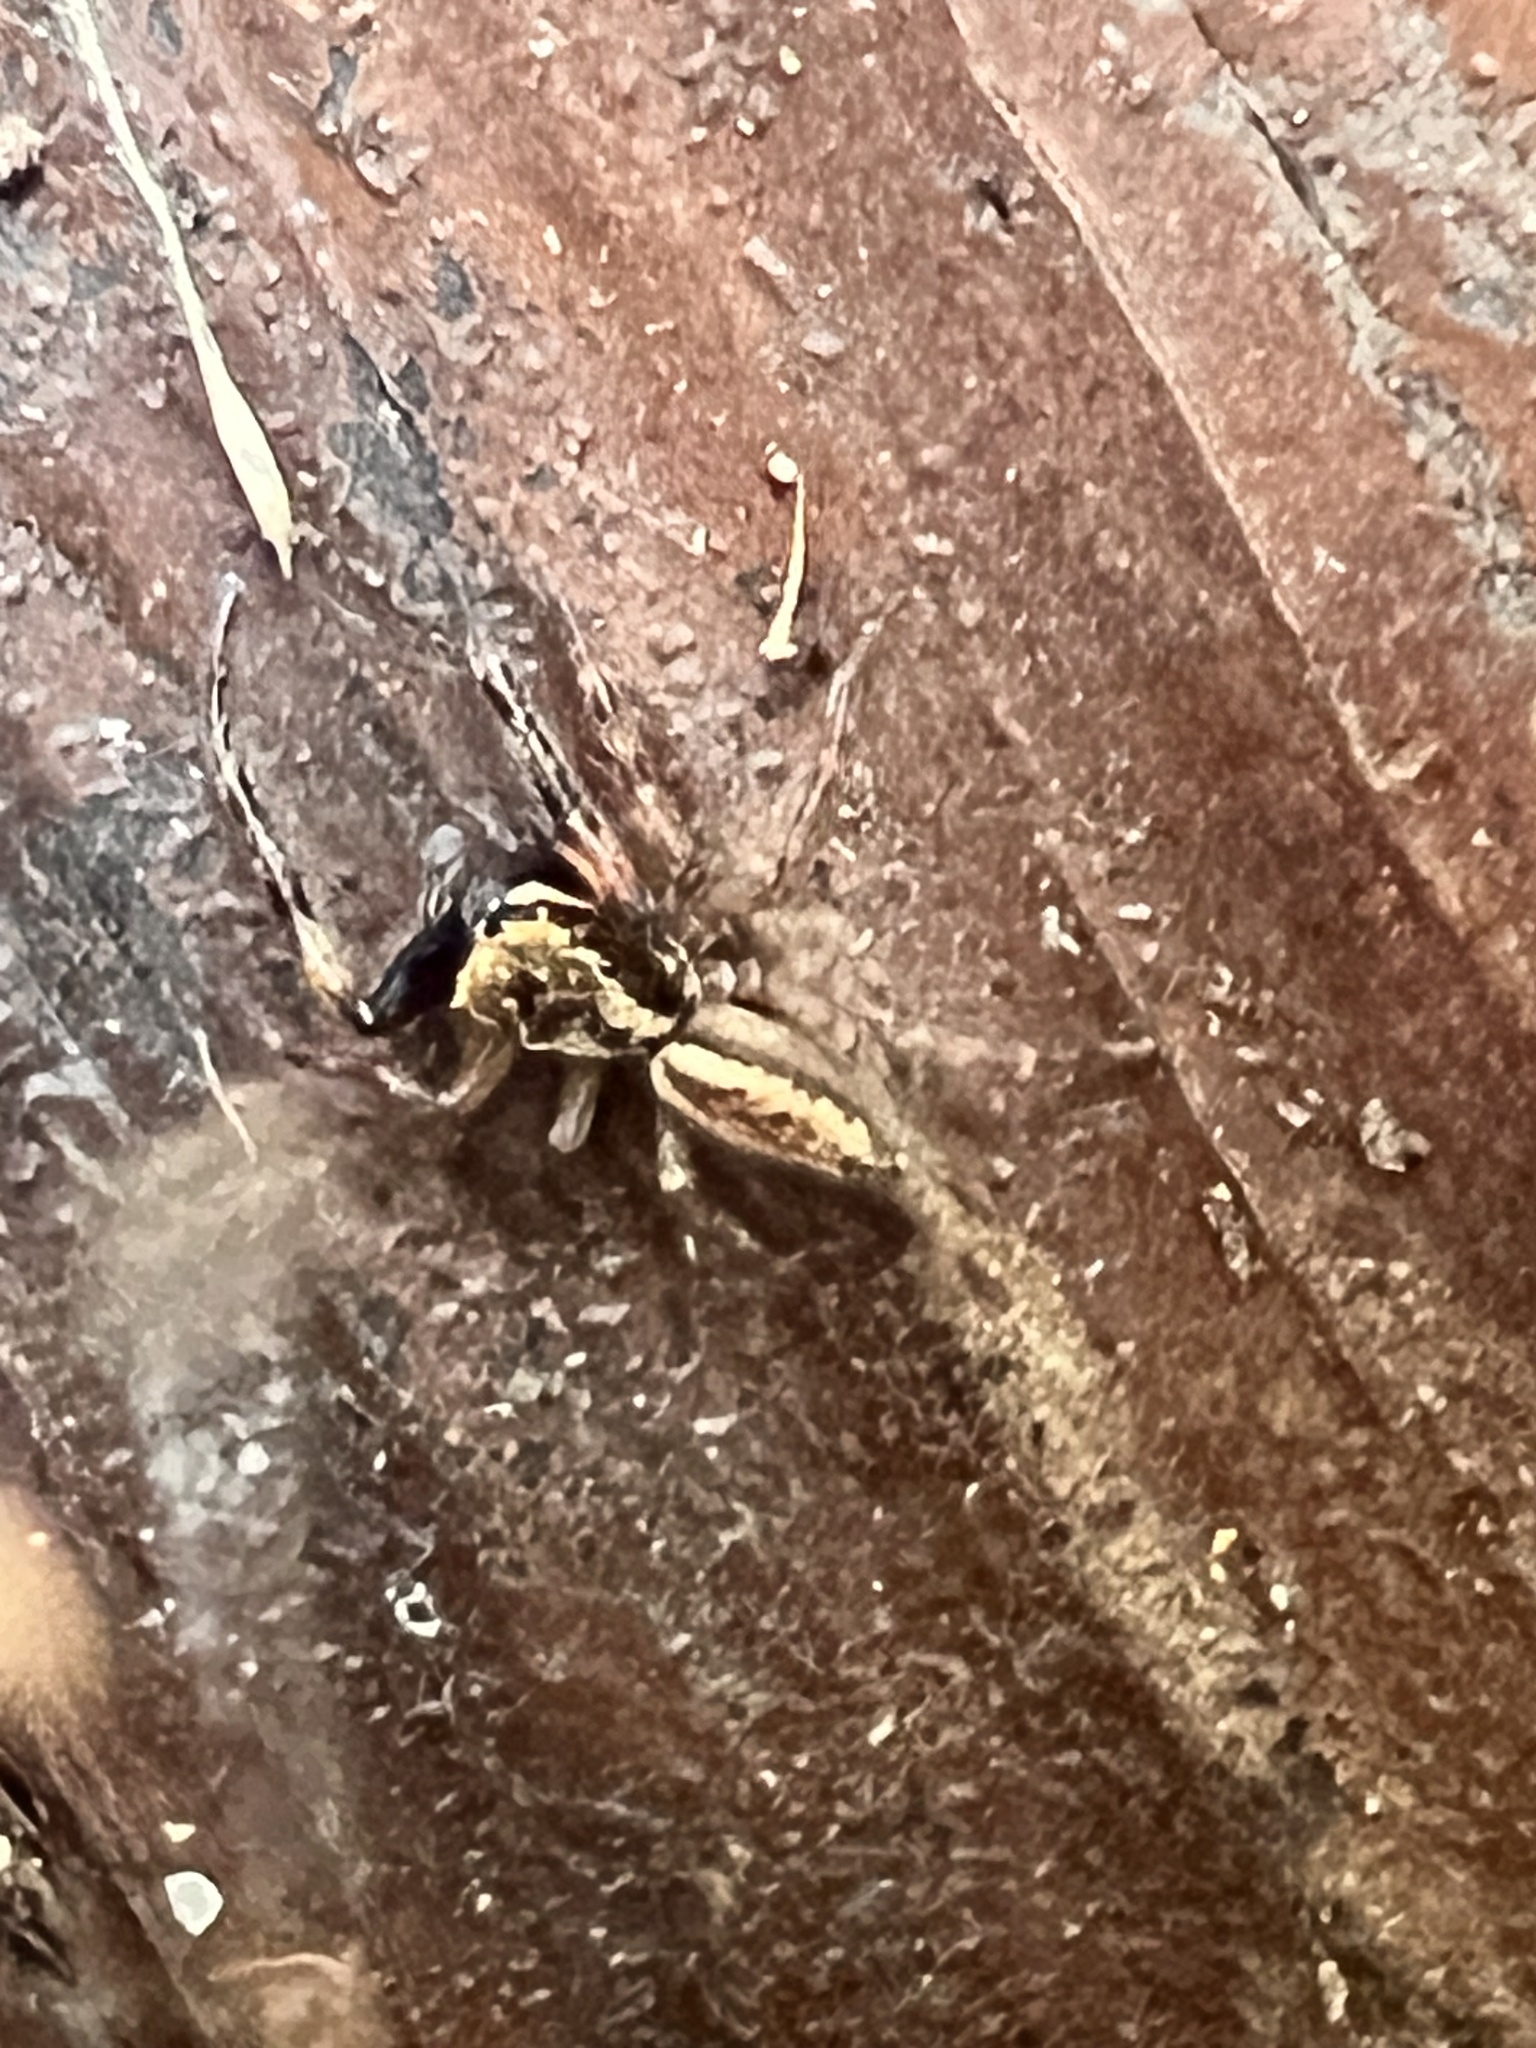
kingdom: Animalia
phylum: Arthropoda
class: Arachnida
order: Araneae
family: Salticidae
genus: Trite
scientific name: Trite auricoma
